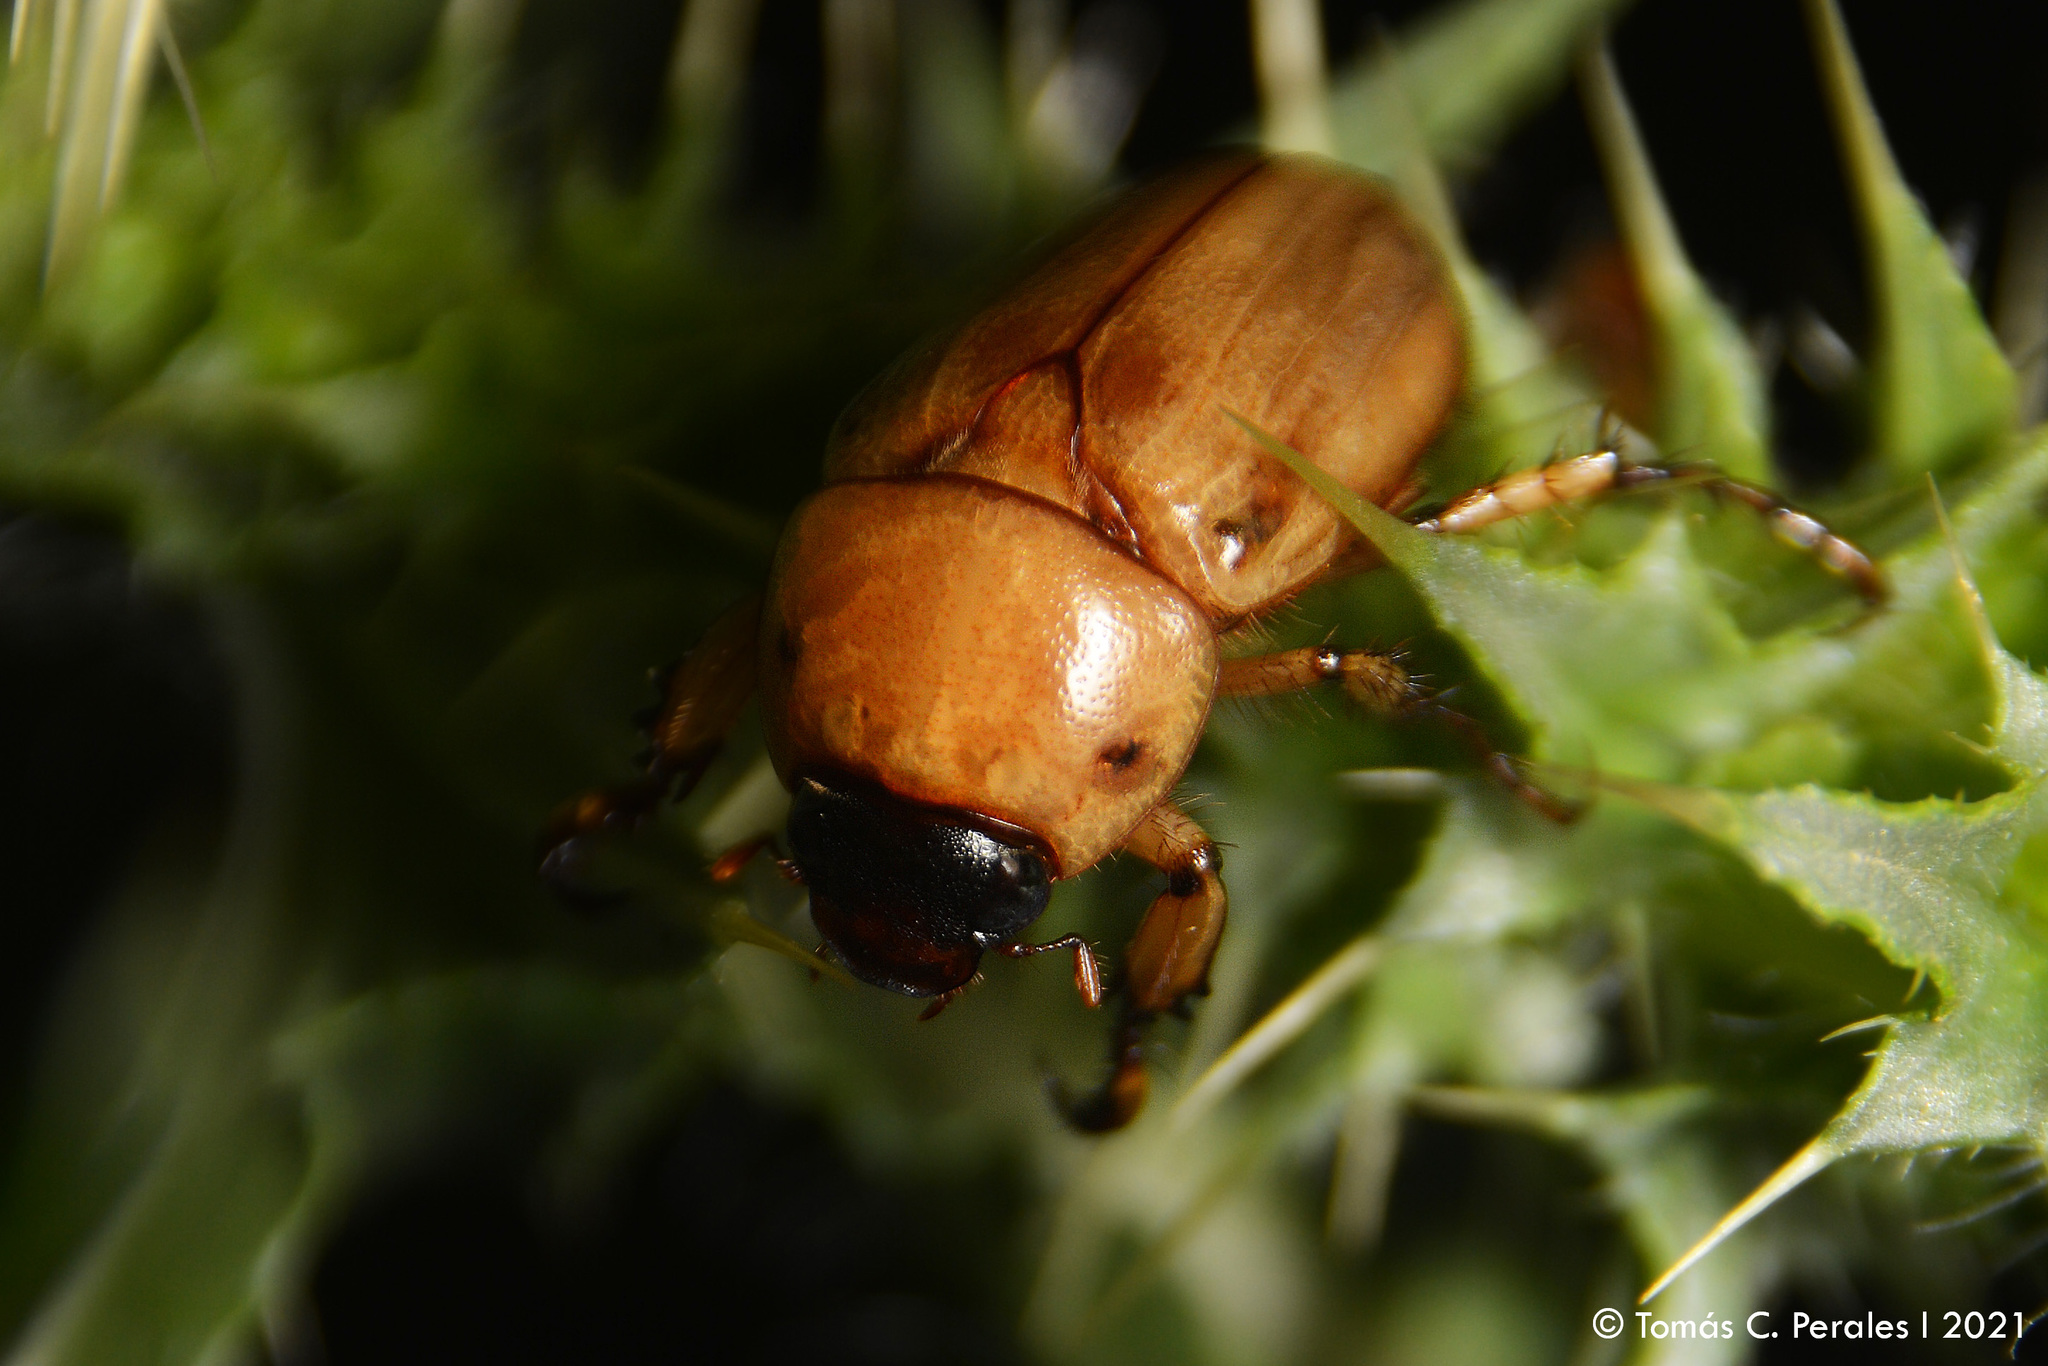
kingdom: Animalia
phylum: Arthropoda
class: Insecta
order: Coleoptera
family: Scarabaeidae
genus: Cyclocephala
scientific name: Cyclocephala putrida
